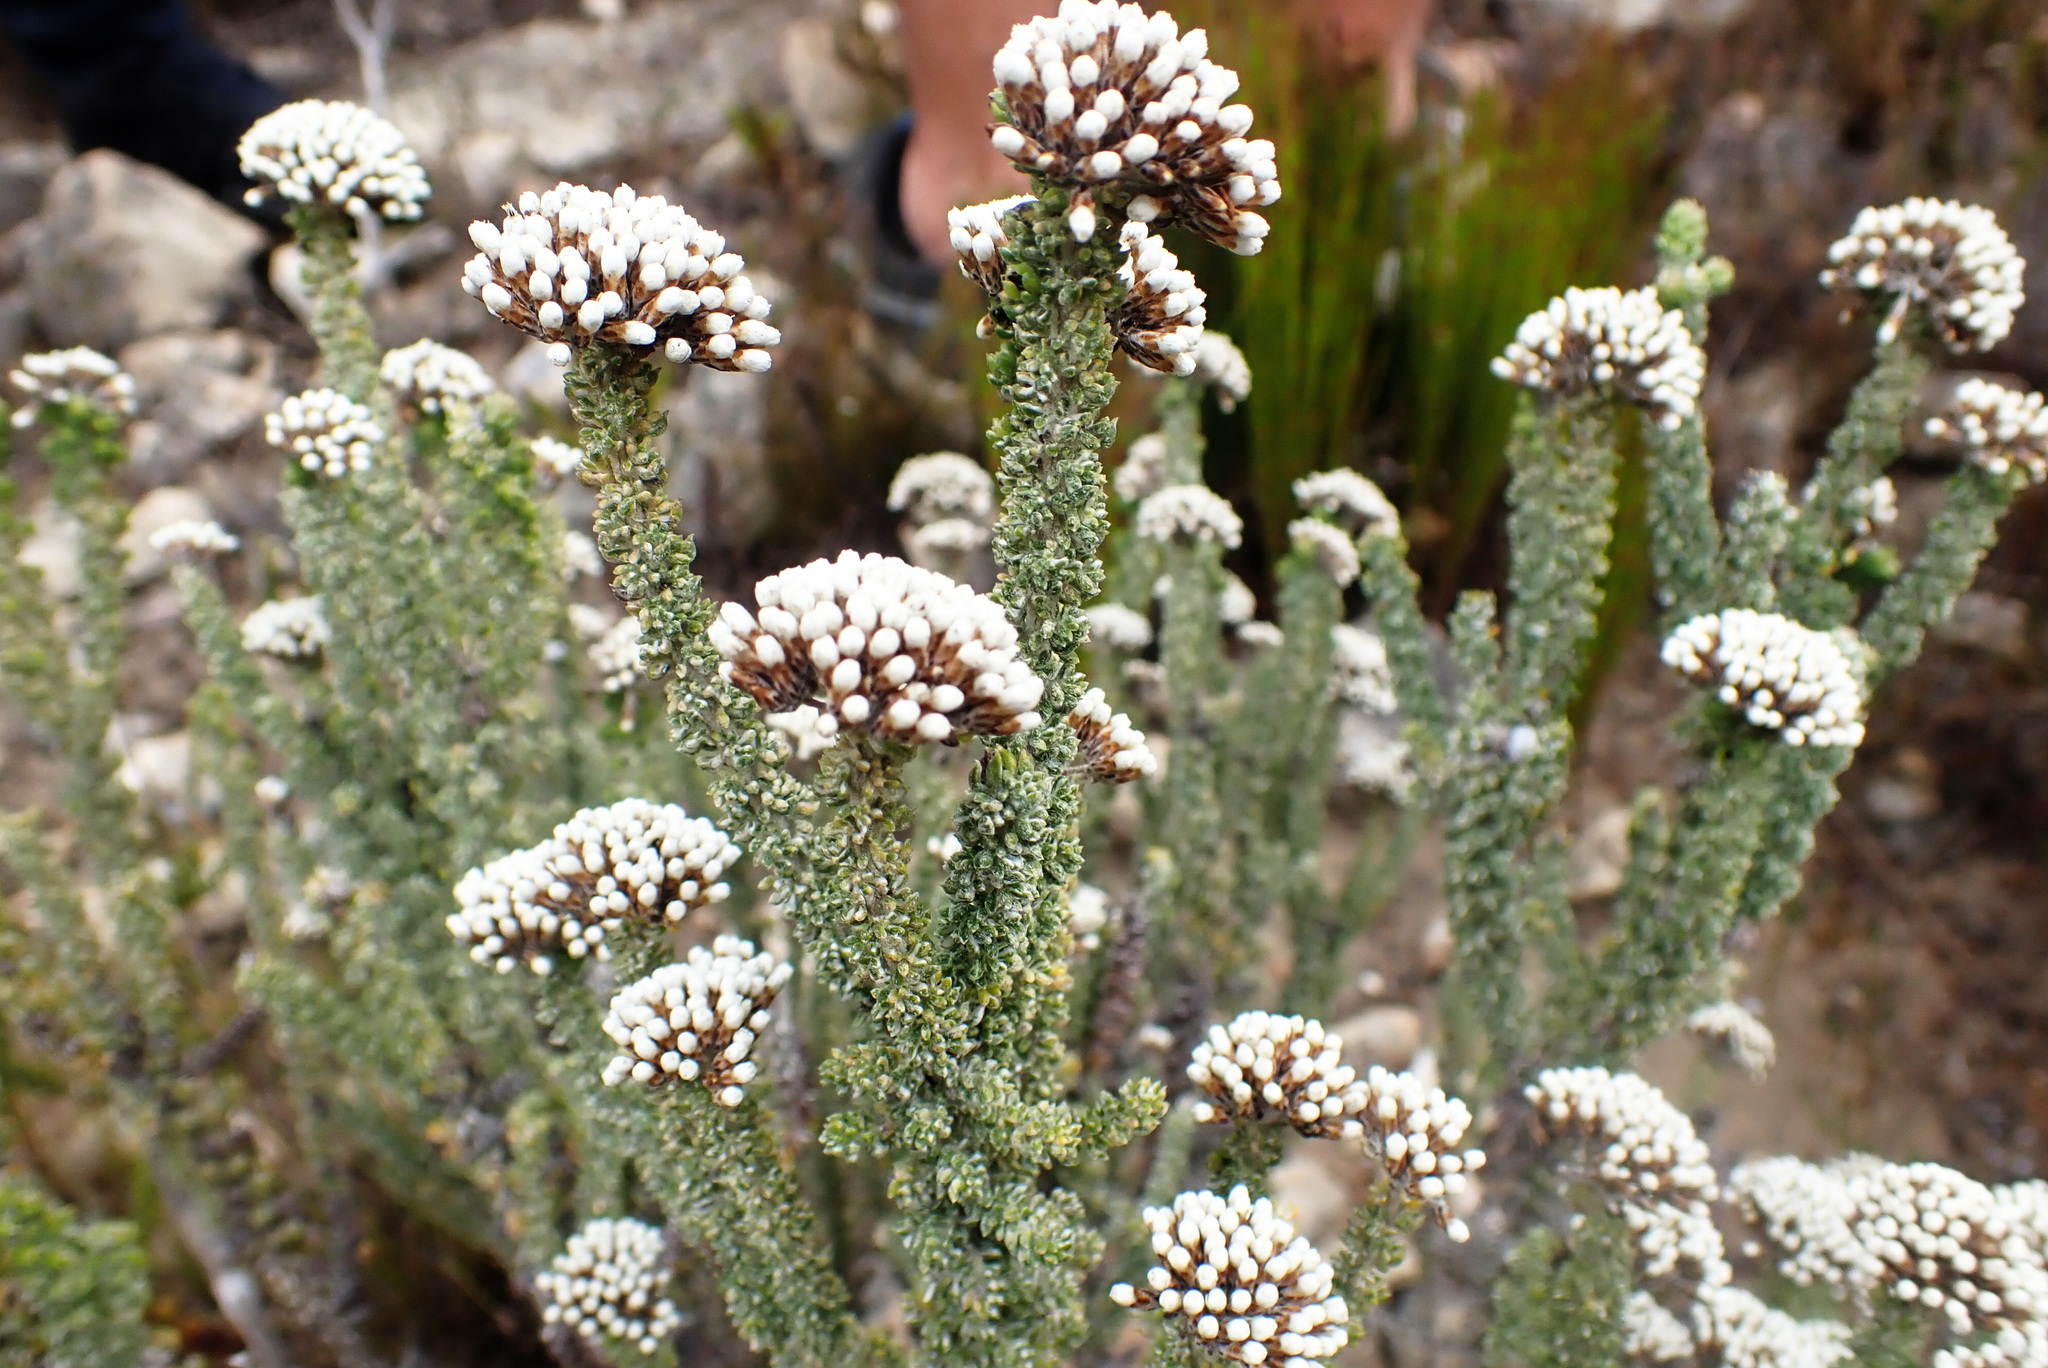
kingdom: Plantae
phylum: Tracheophyta
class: Magnoliopsida
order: Asterales
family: Asteraceae
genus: Metalasia
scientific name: Metalasia calcicola
